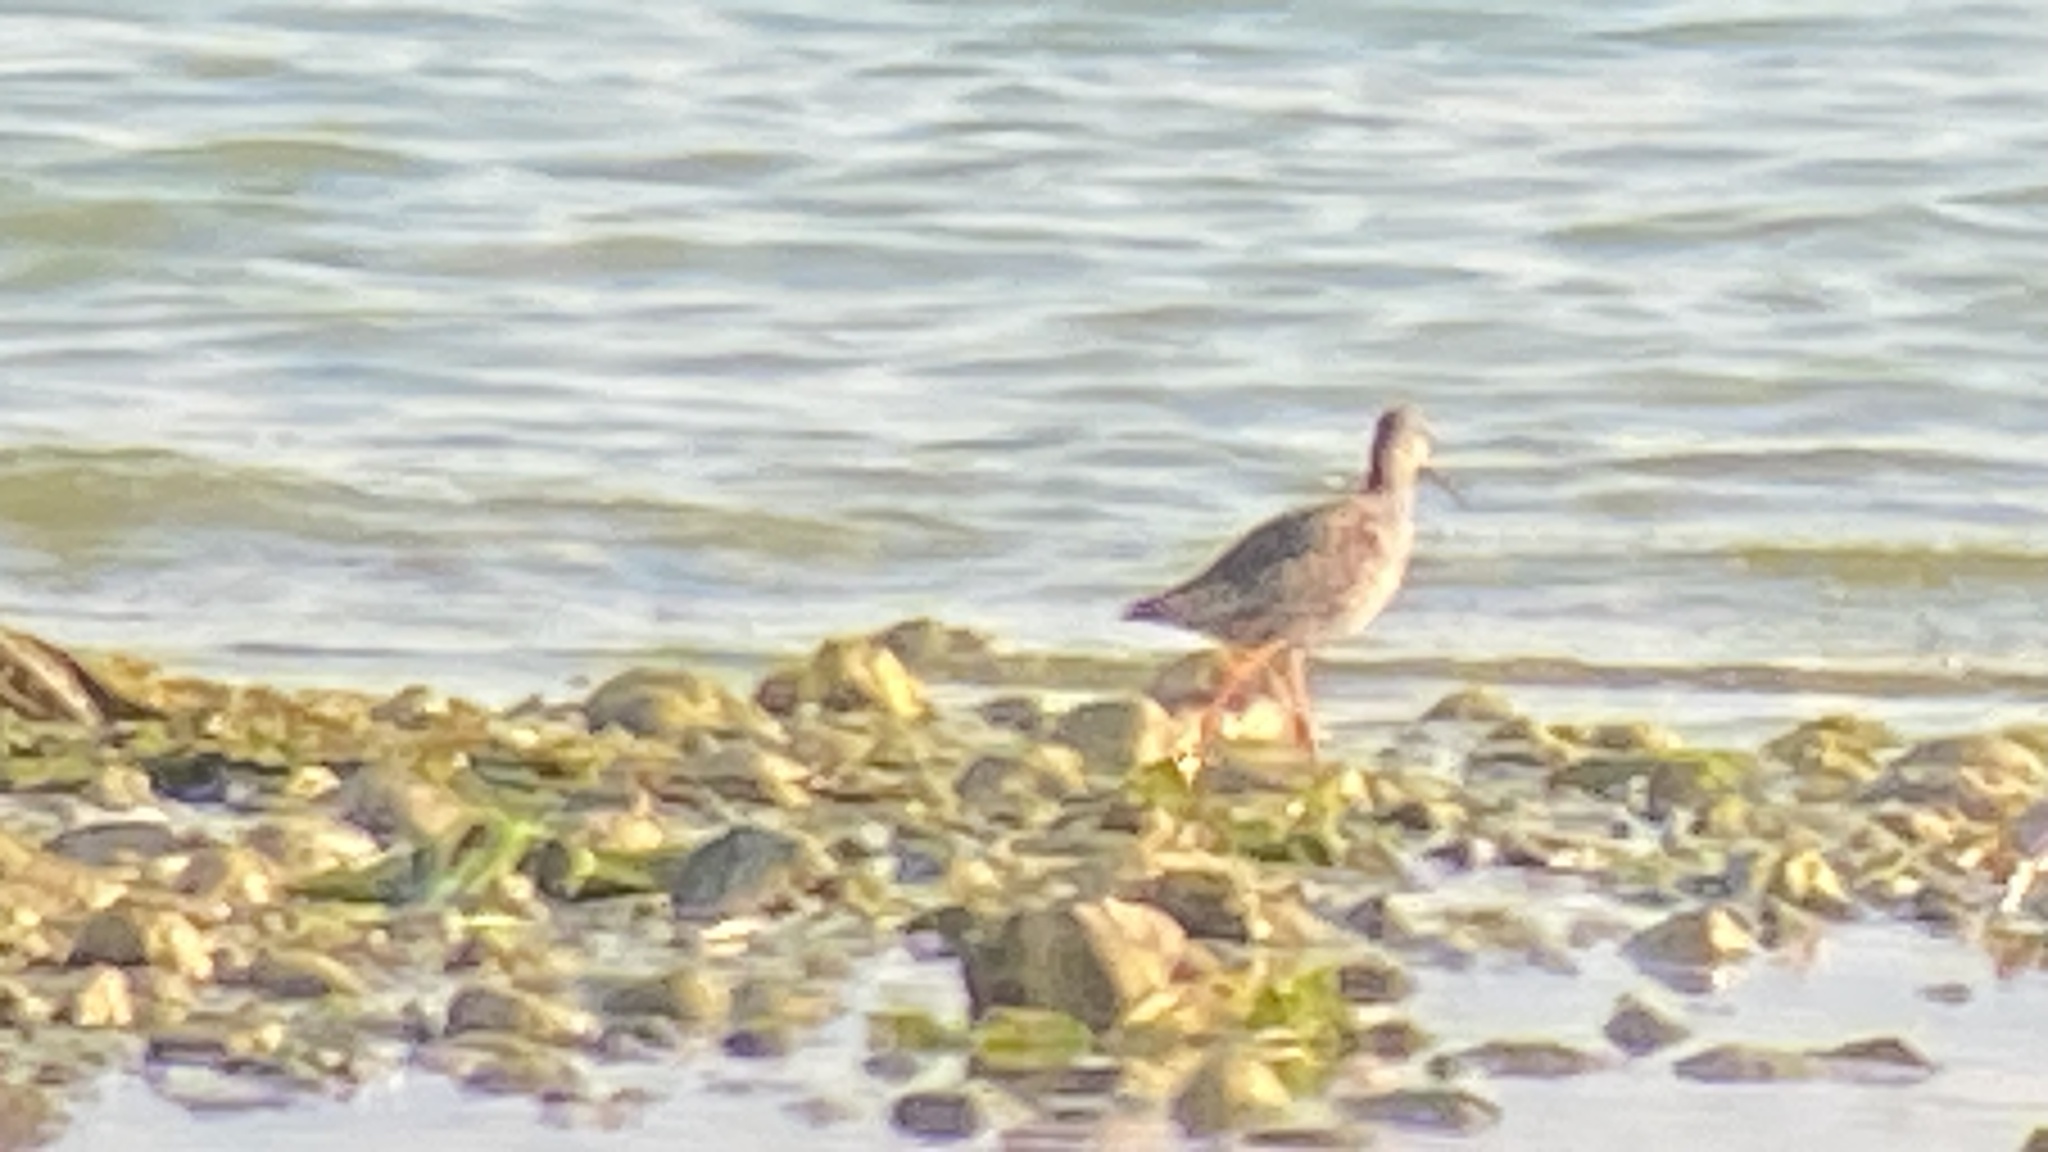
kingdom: Animalia
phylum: Chordata
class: Aves
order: Charadriiformes
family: Scolopacidae
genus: Tringa
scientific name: Tringa erythropus
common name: Spotted redshank
